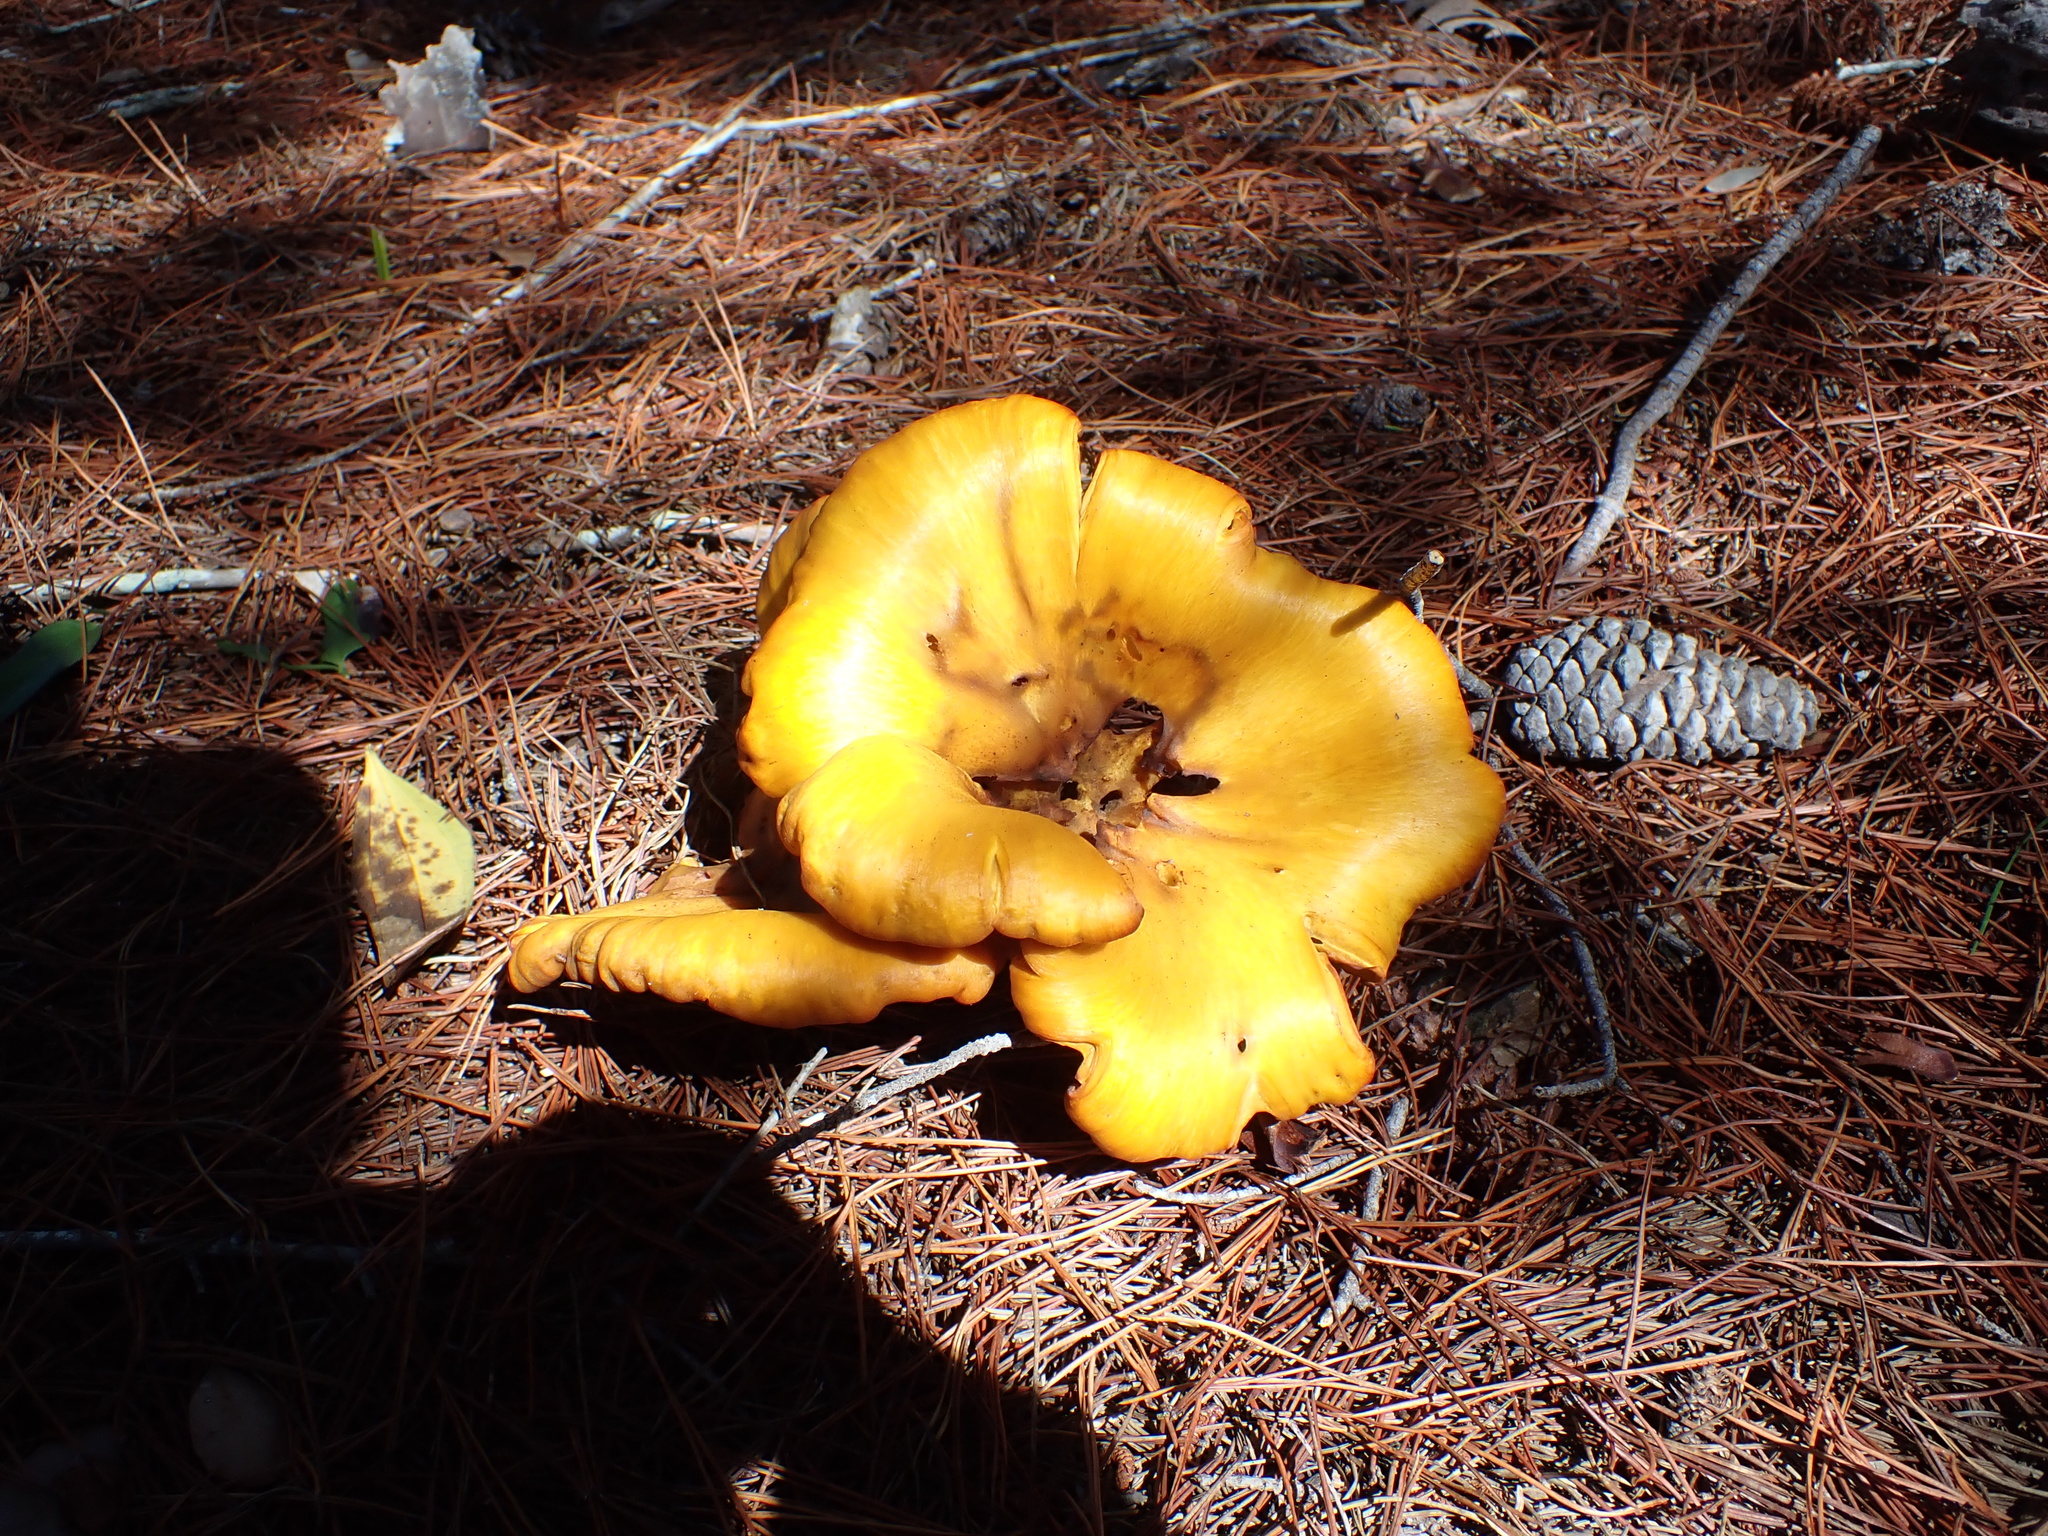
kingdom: Fungi
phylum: Basidiomycota
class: Agaricomycetes
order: Agaricales
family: Omphalotaceae
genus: Omphalotus
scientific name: Omphalotus subilludens
